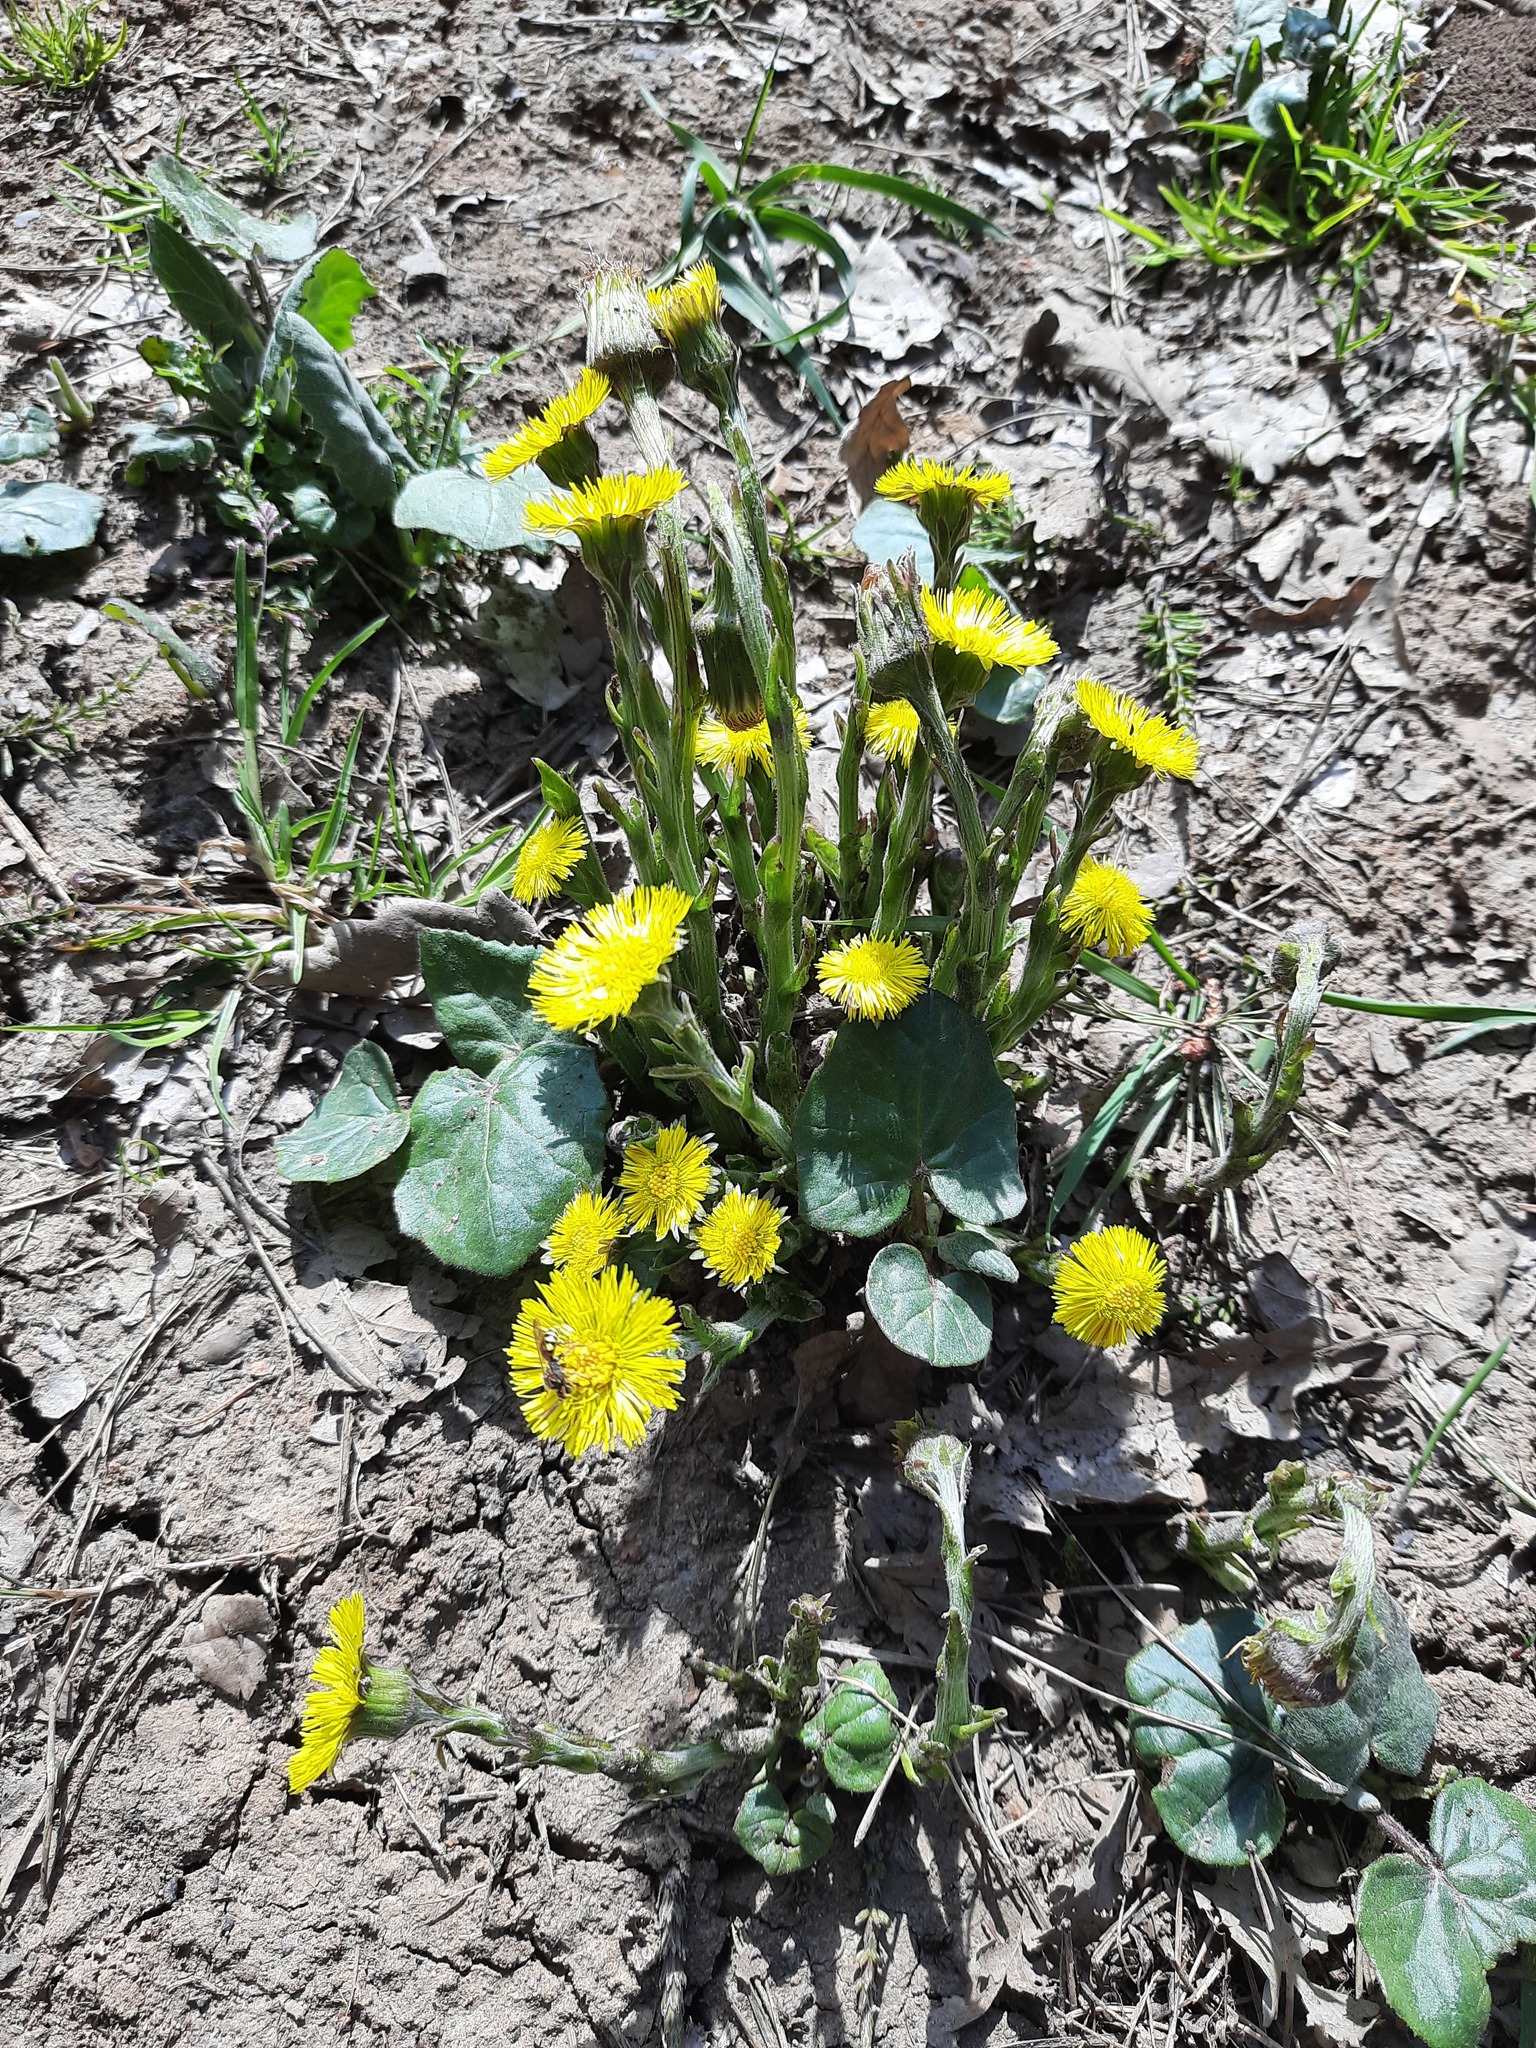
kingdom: Plantae
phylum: Tracheophyta
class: Magnoliopsida
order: Asterales
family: Asteraceae
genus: Tussilago
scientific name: Tussilago farfara
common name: Coltsfoot
